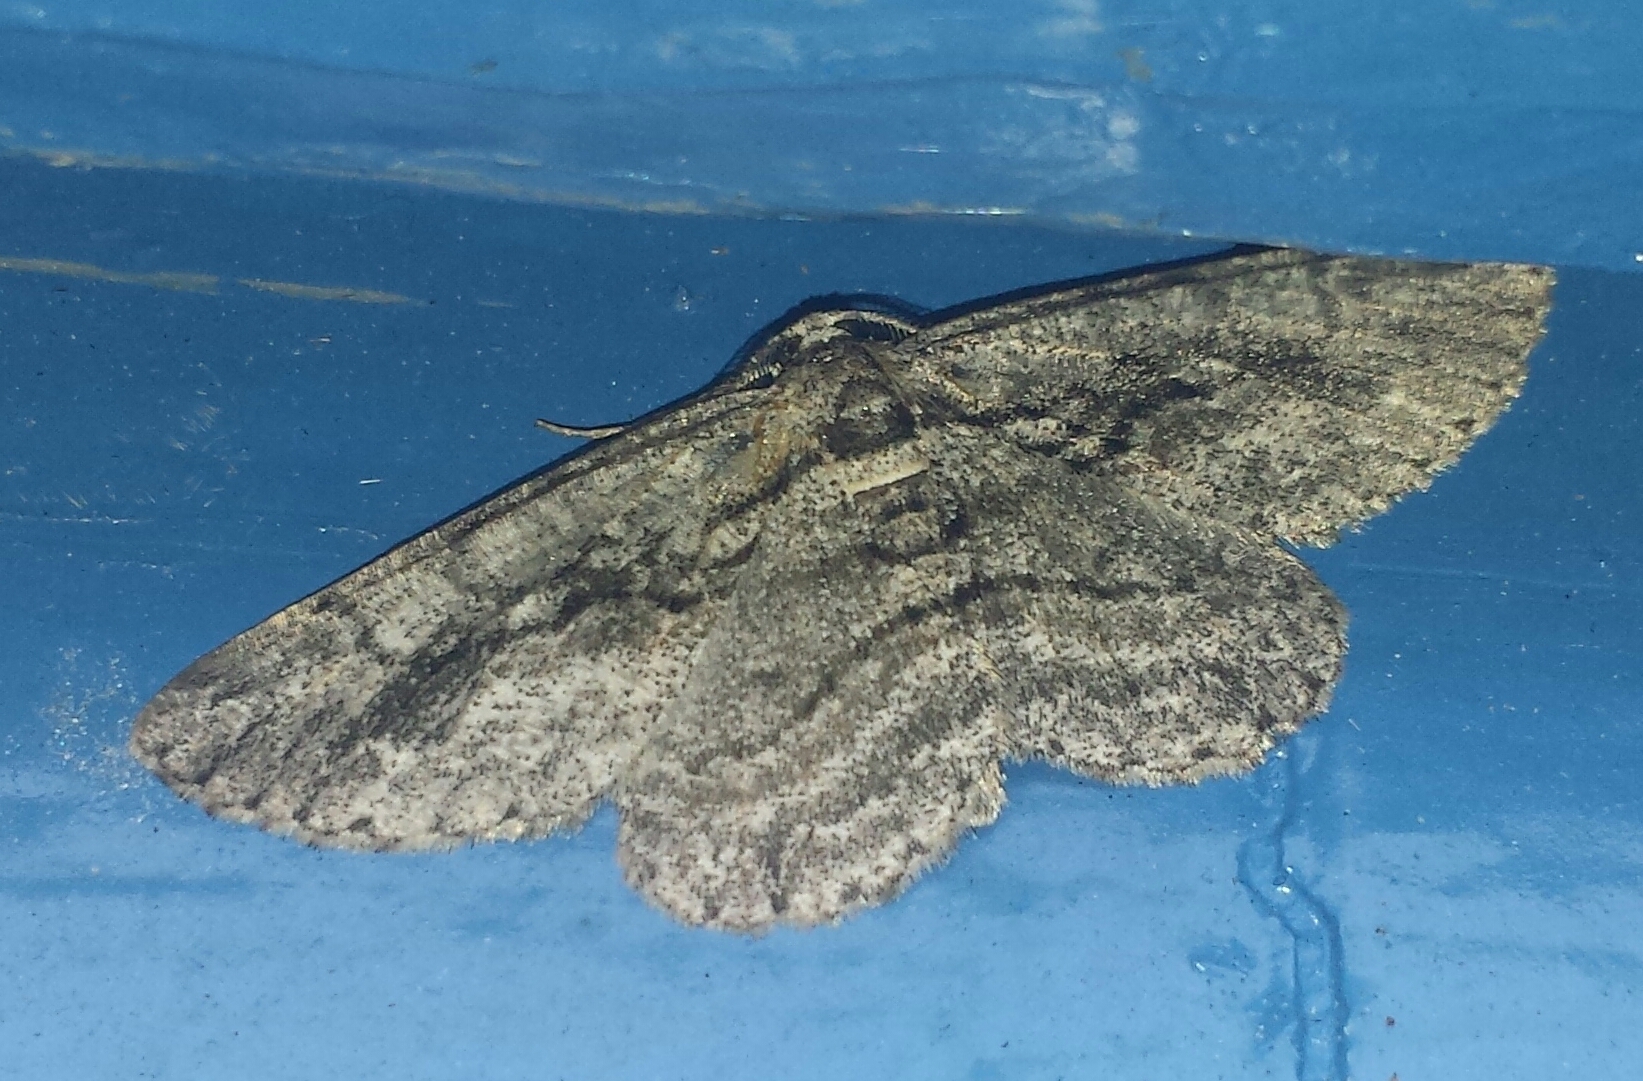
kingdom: Animalia
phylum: Arthropoda
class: Insecta
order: Lepidoptera
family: Geometridae
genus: Anavitrinella
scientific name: Anavitrinella pampinaria
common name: Common gray
